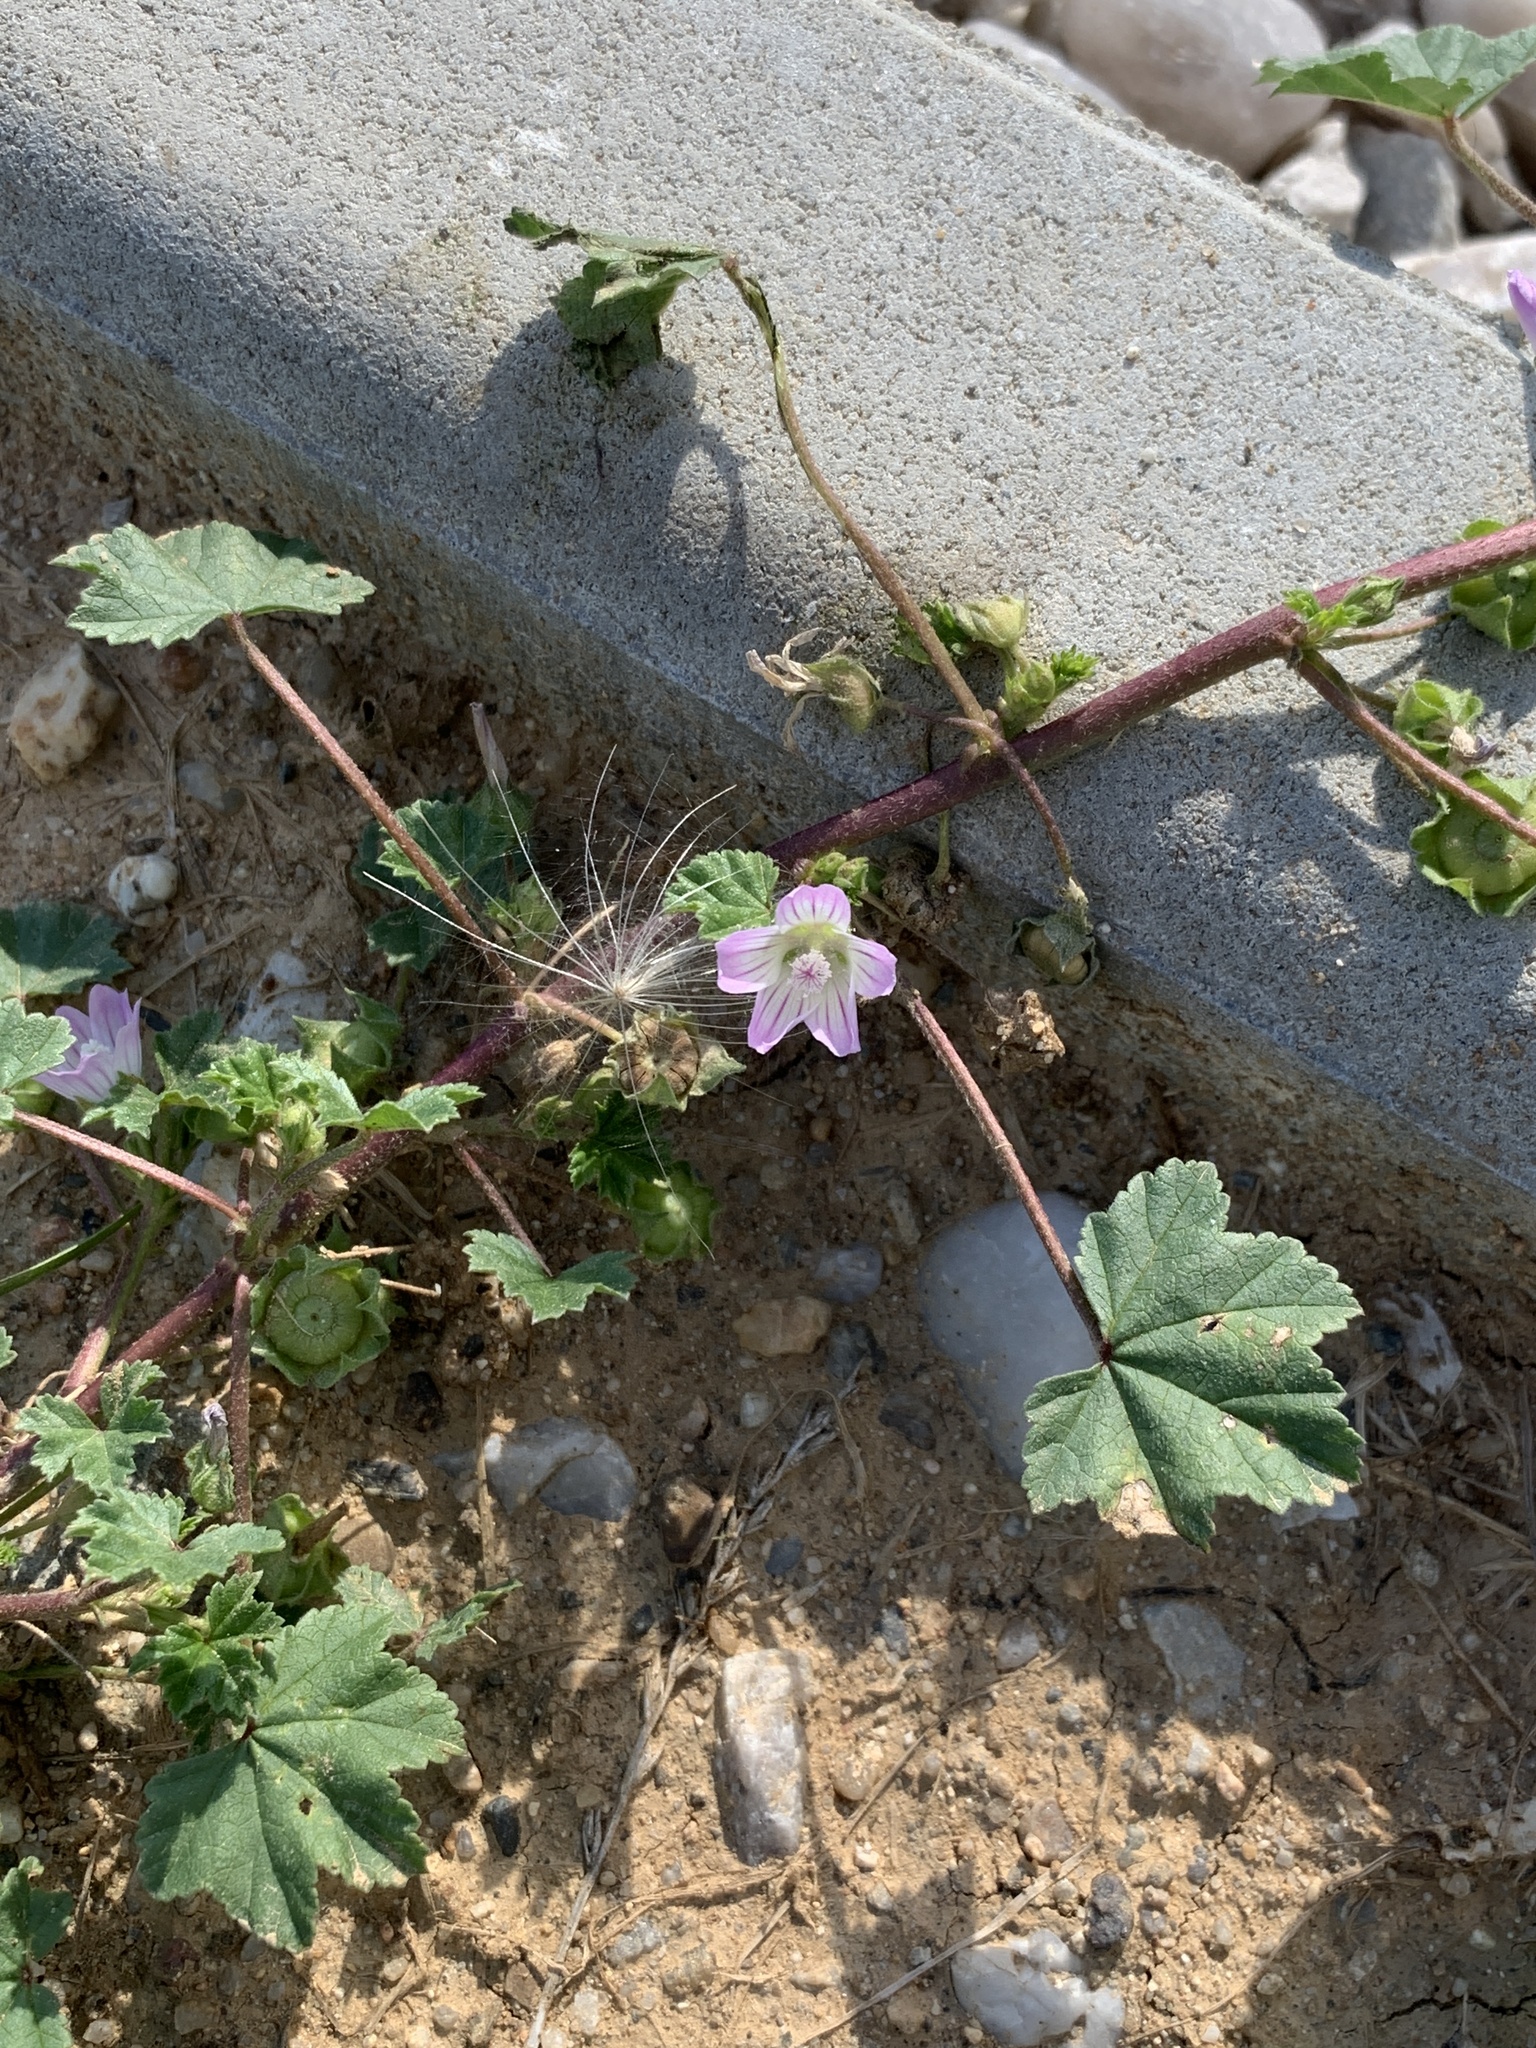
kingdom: Plantae
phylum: Tracheophyta
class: Magnoliopsida
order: Malvales
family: Malvaceae
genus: Malva
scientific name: Malva neglecta
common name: Common mallow
